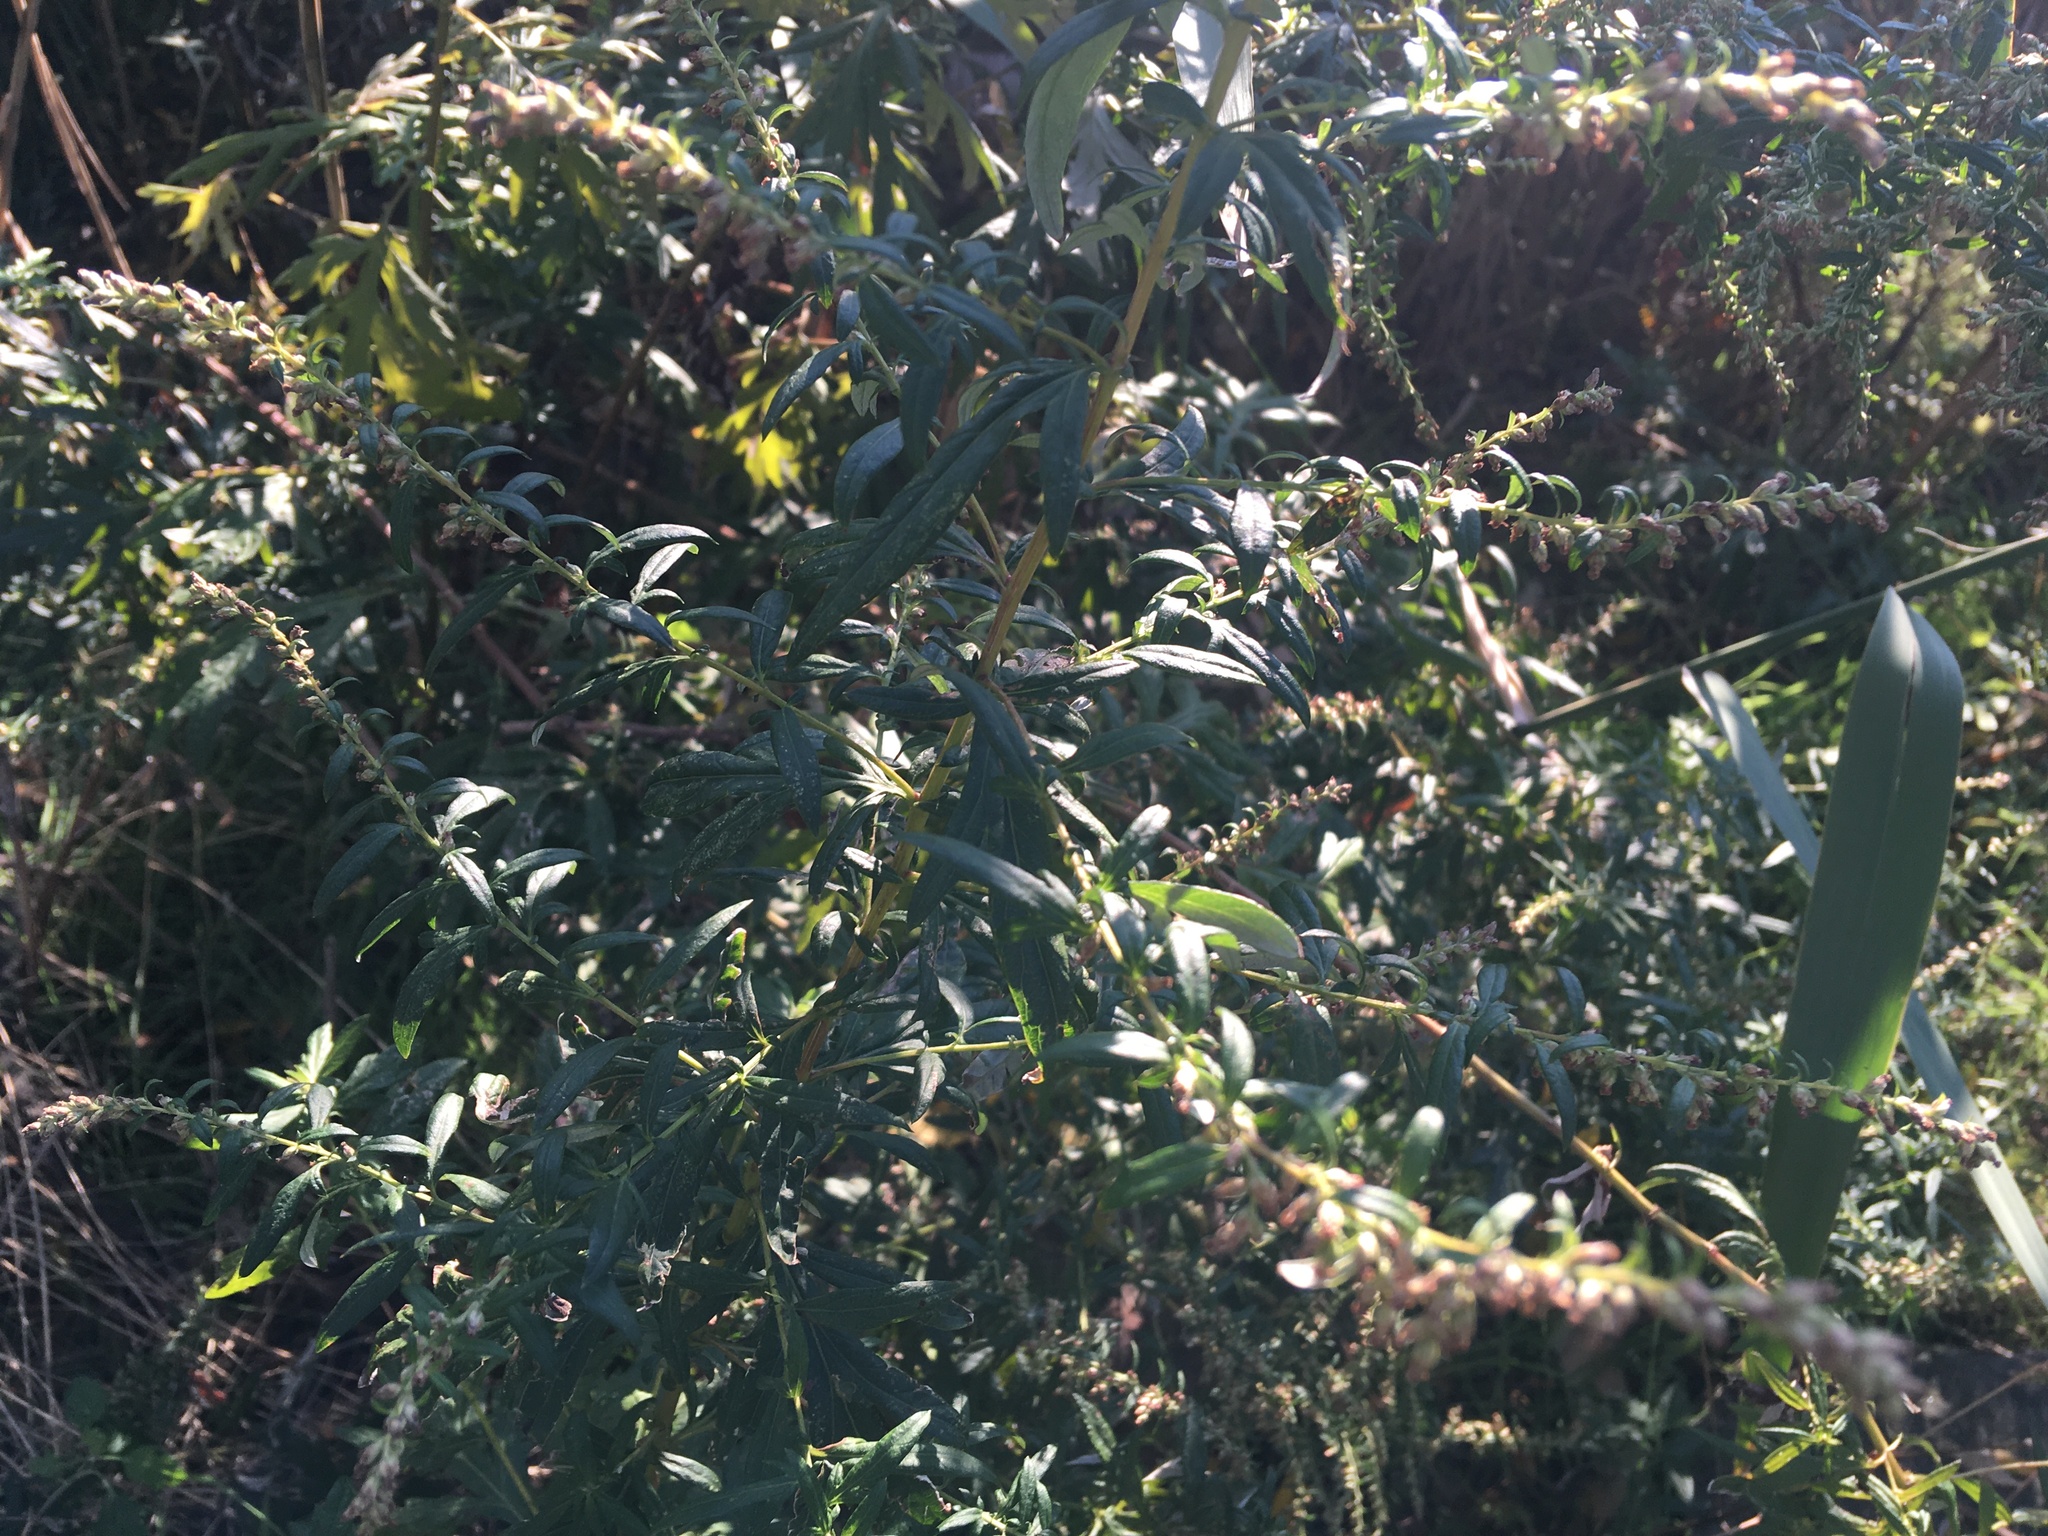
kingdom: Plantae
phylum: Tracheophyta
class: Magnoliopsida
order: Asterales
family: Asteraceae
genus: Artemisia
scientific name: Artemisia vulgaris
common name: Mugwort
